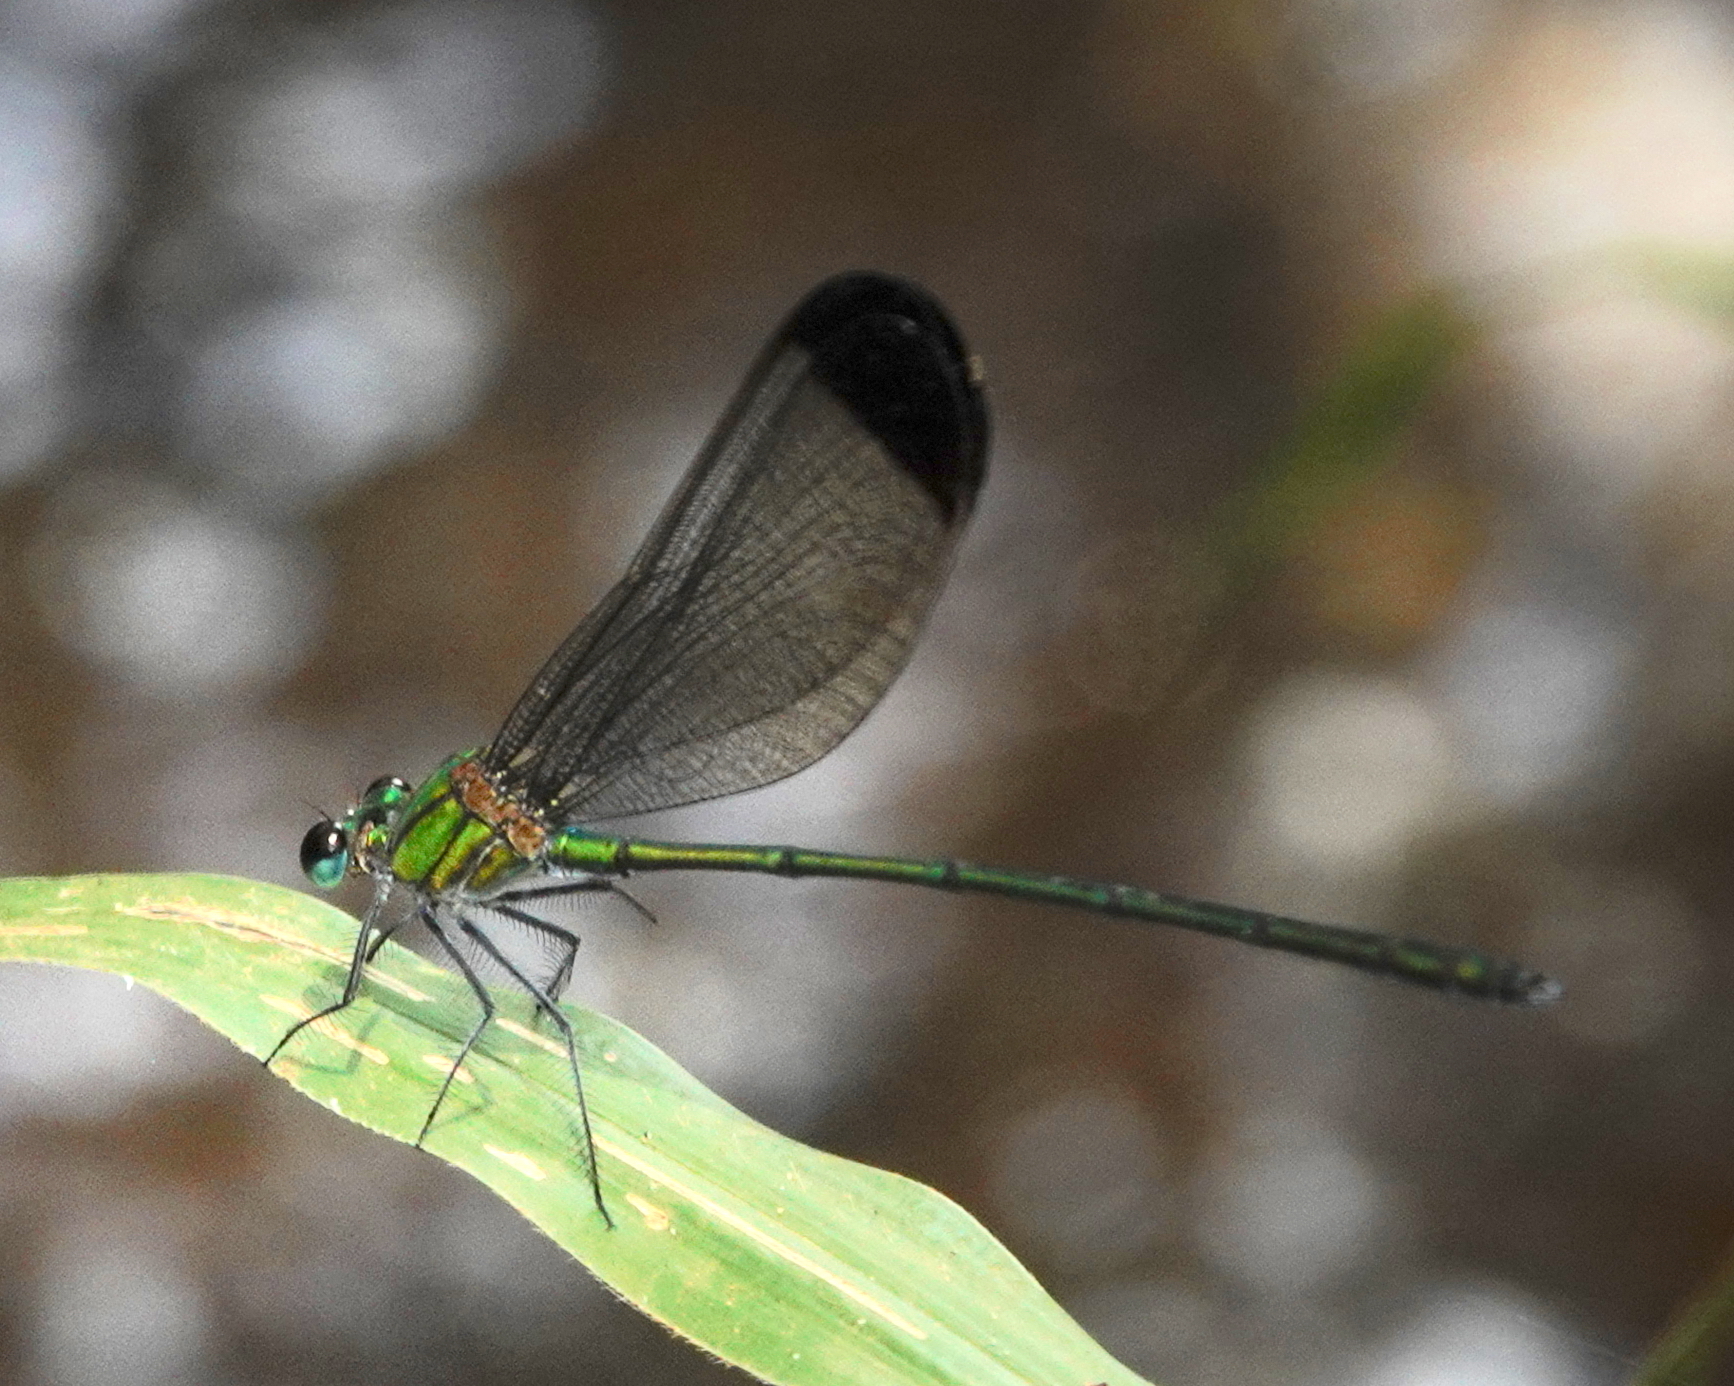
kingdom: Animalia
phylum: Arthropoda
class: Insecta
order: Odonata
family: Calopterygidae
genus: Vestalis
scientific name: Vestalis nigrescens
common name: Black-tipped demoiselle
